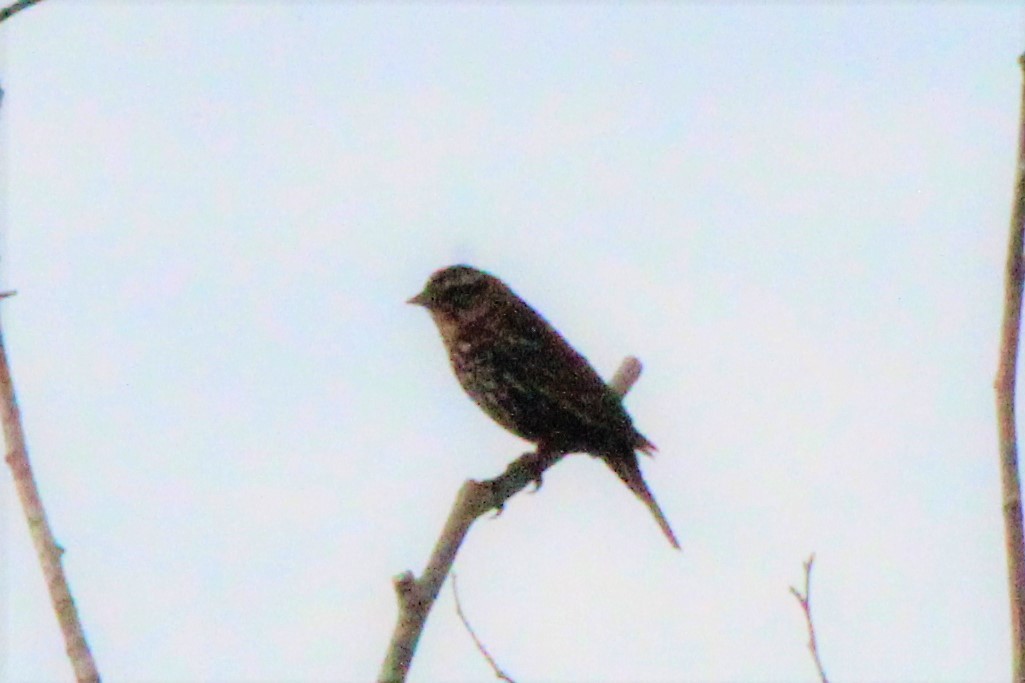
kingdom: Animalia
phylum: Chordata
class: Aves
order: Passeriformes
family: Icteridae
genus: Agelaius
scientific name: Agelaius phoeniceus
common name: Red-winged blackbird
